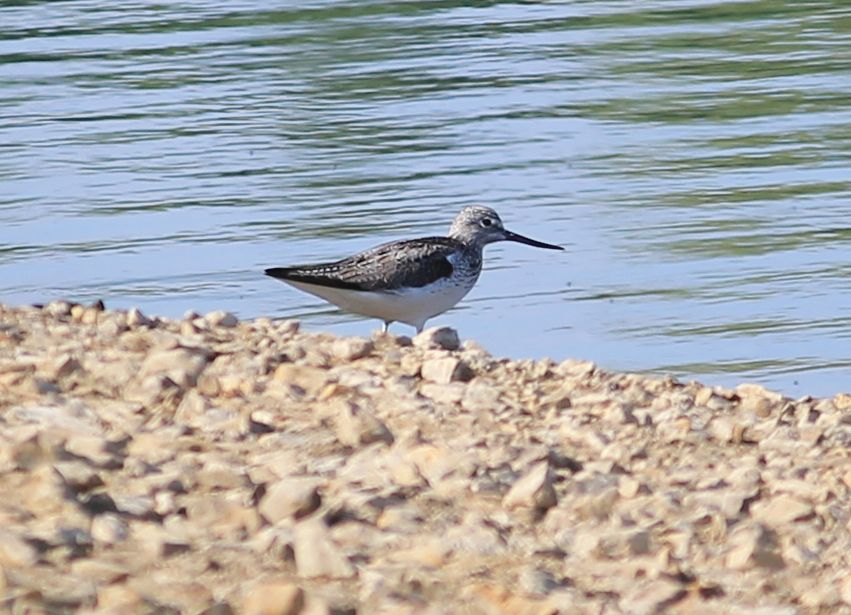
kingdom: Animalia
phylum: Chordata
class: Aves
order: Charadriiformes
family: Scolopacidae
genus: Tringa
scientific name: Tringa nebularia
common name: Common greenshank
